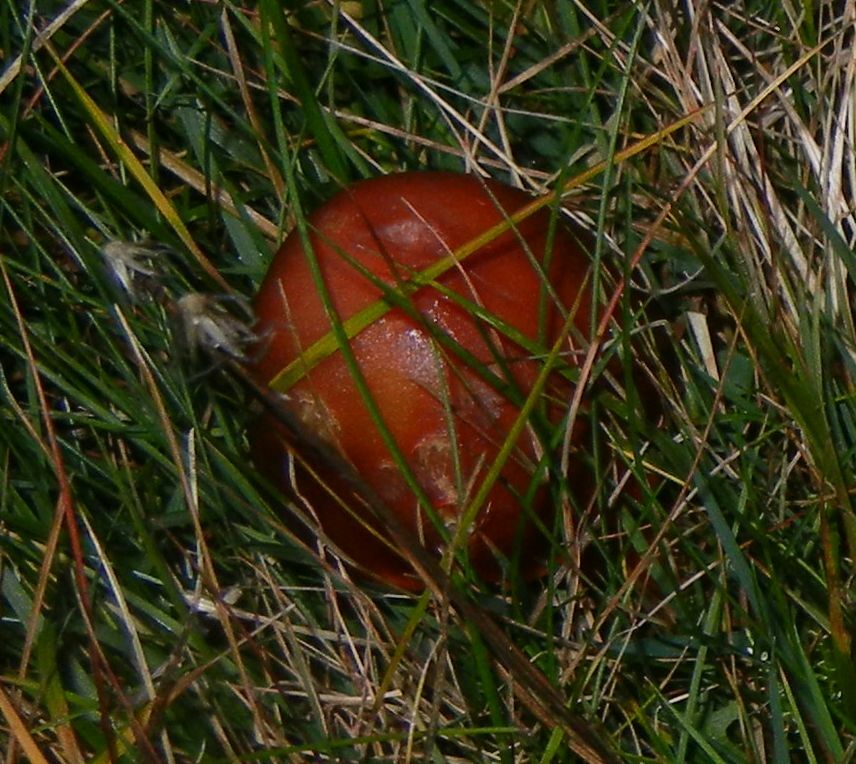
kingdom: Fungi
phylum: Basidiomycota
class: Agaricomycetes
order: Agaricales
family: Hygrophoraceae
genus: Hygrocybe
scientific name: Hygrocybe punicea
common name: Crimson waxcap
